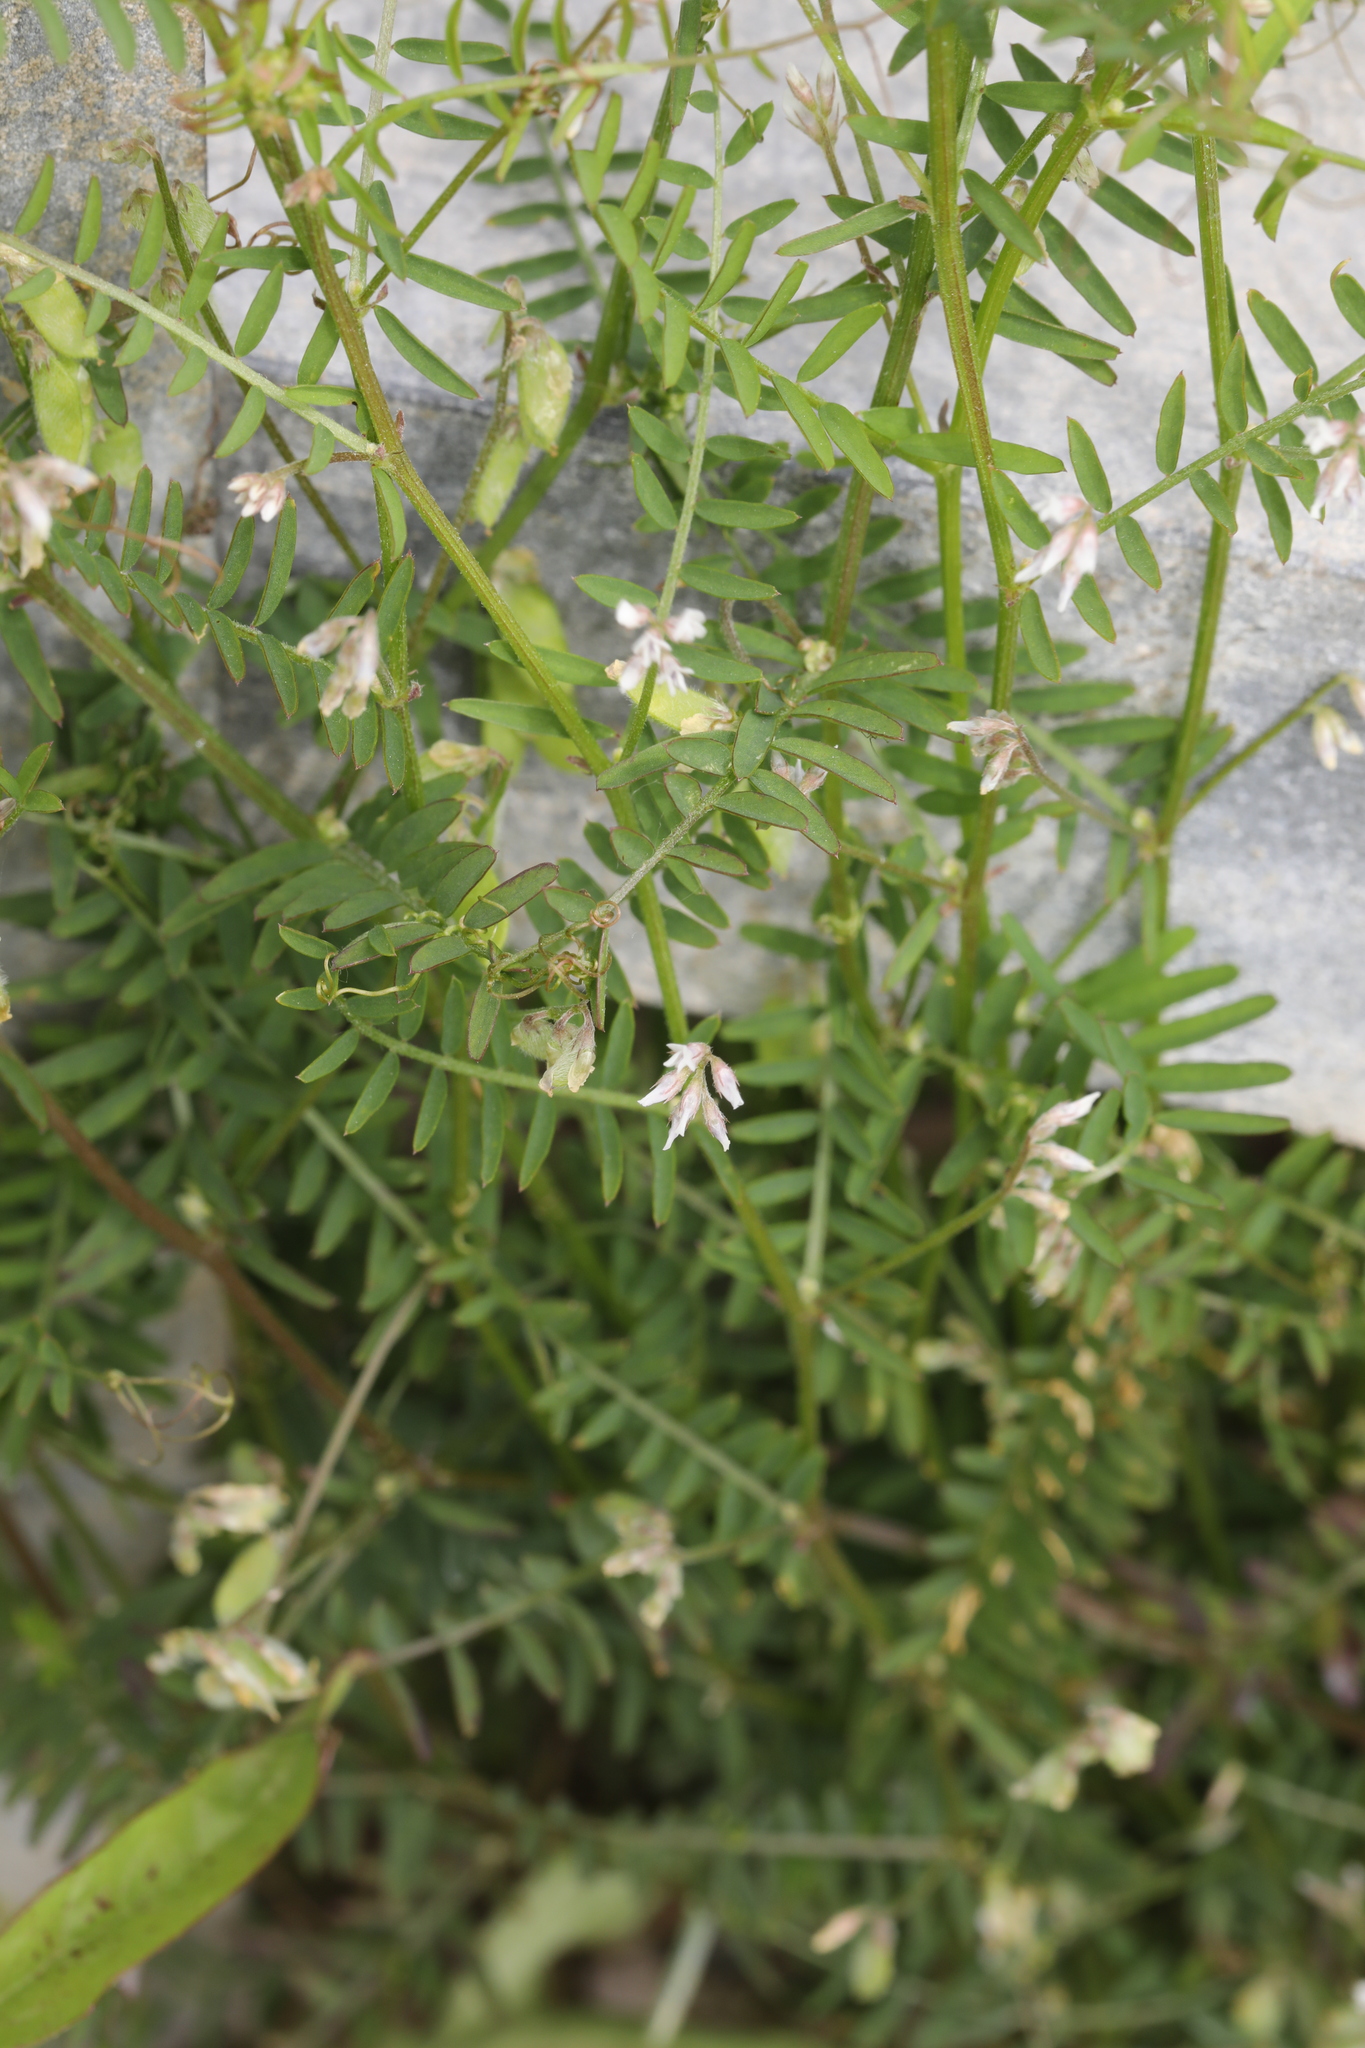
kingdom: Plantae
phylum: Tracheophyta
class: Magnoliopsida
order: Fabales
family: Fabaceae
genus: Vicia
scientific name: Vicia hirsuta
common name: Tiny vetch
